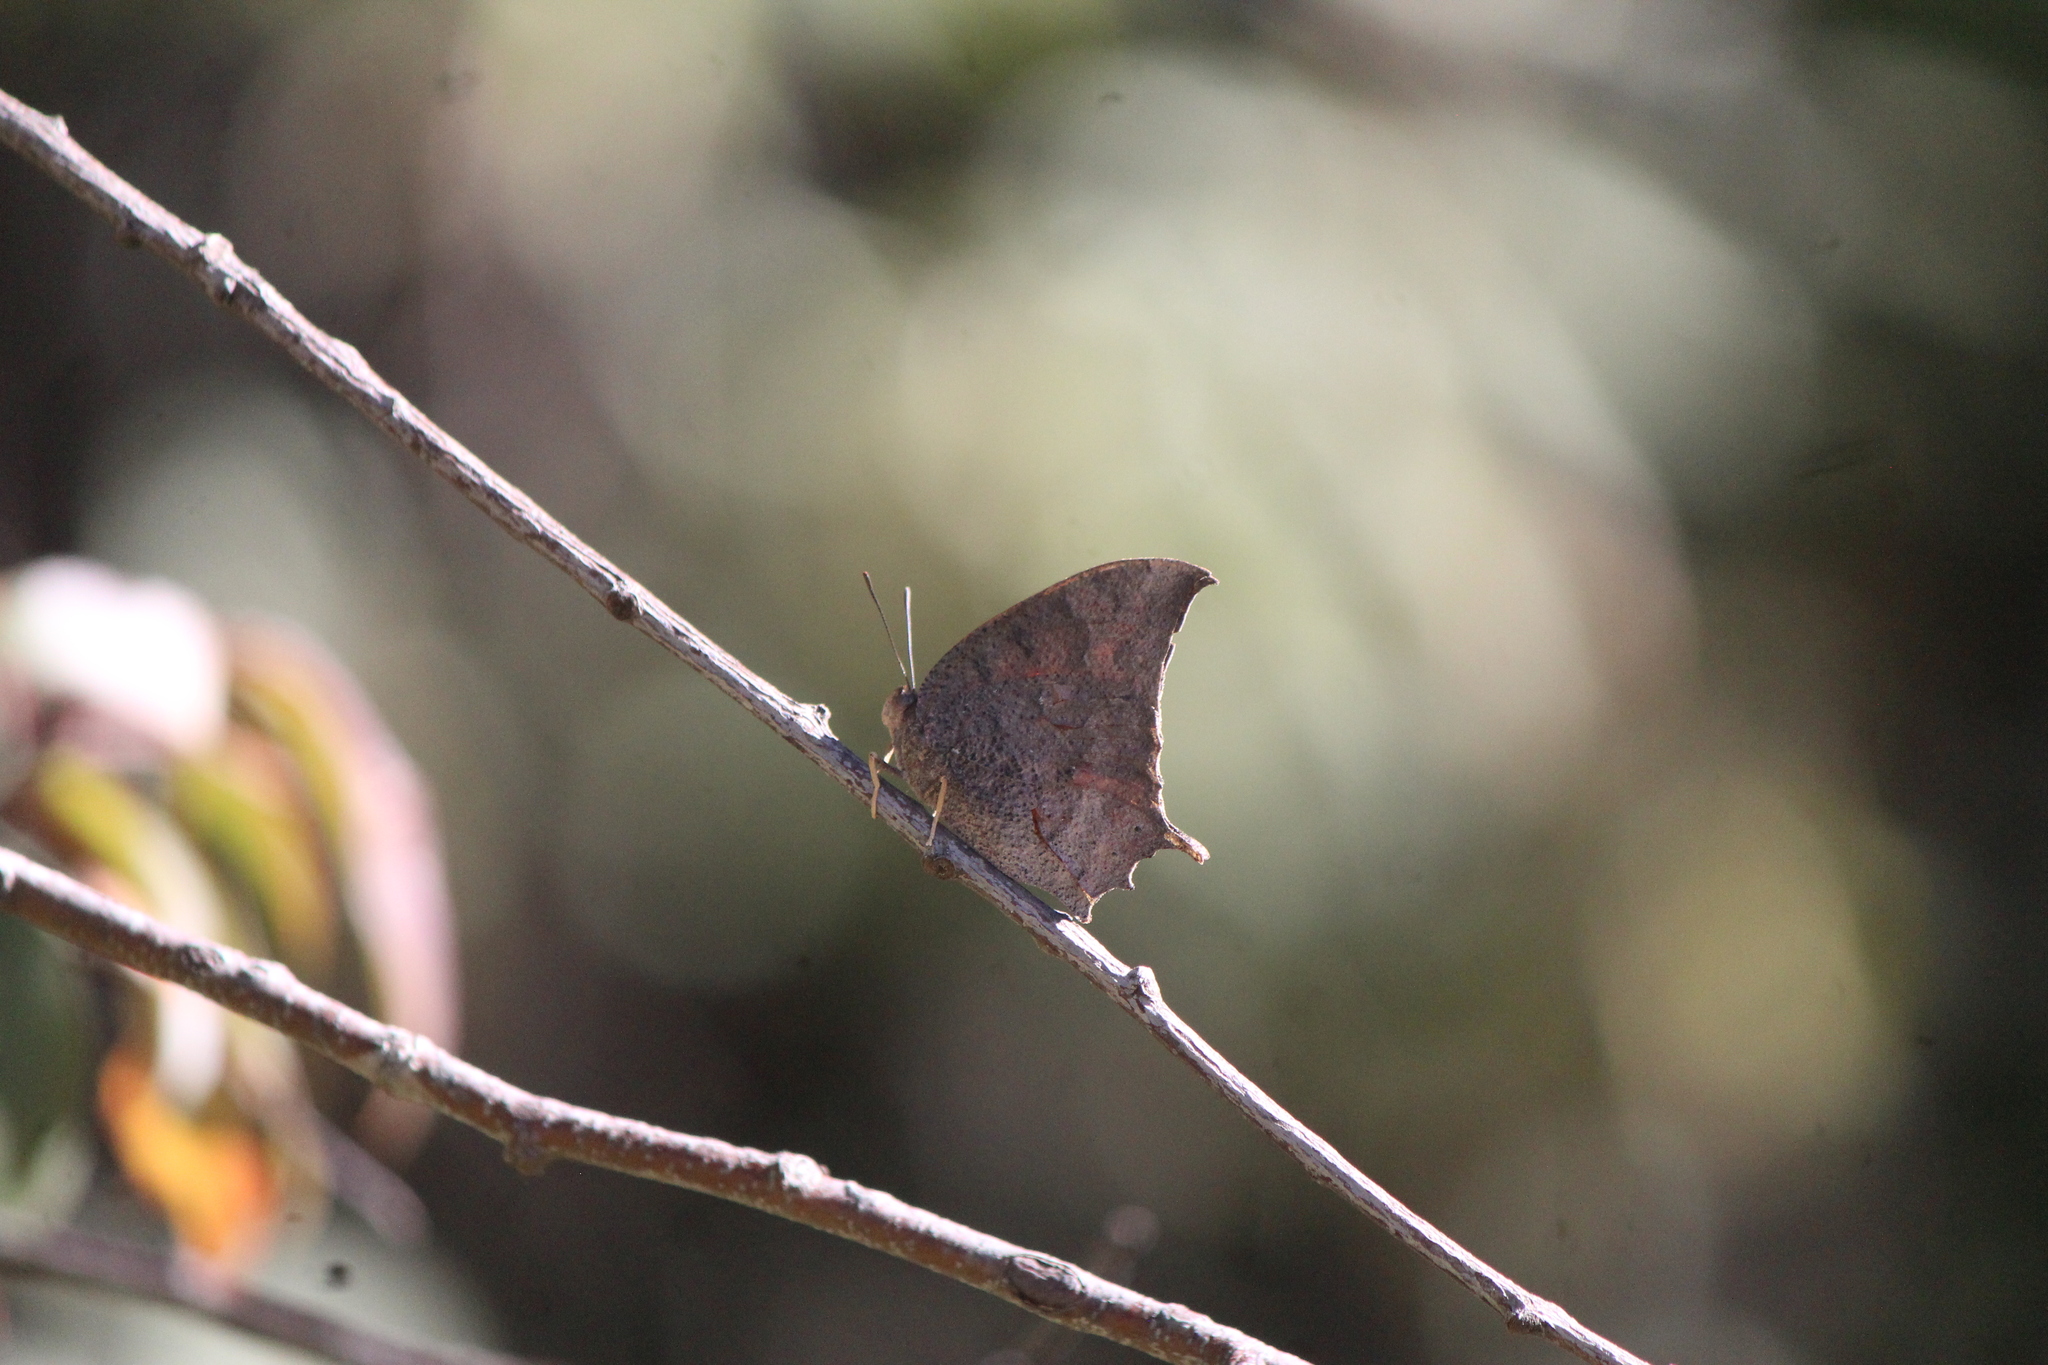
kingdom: Animalia
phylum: Arthropoda
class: Insecta
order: Lepidoptera
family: Nymphalidae
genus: Anaea
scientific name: Anaea aidea
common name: Tropical leafwing
